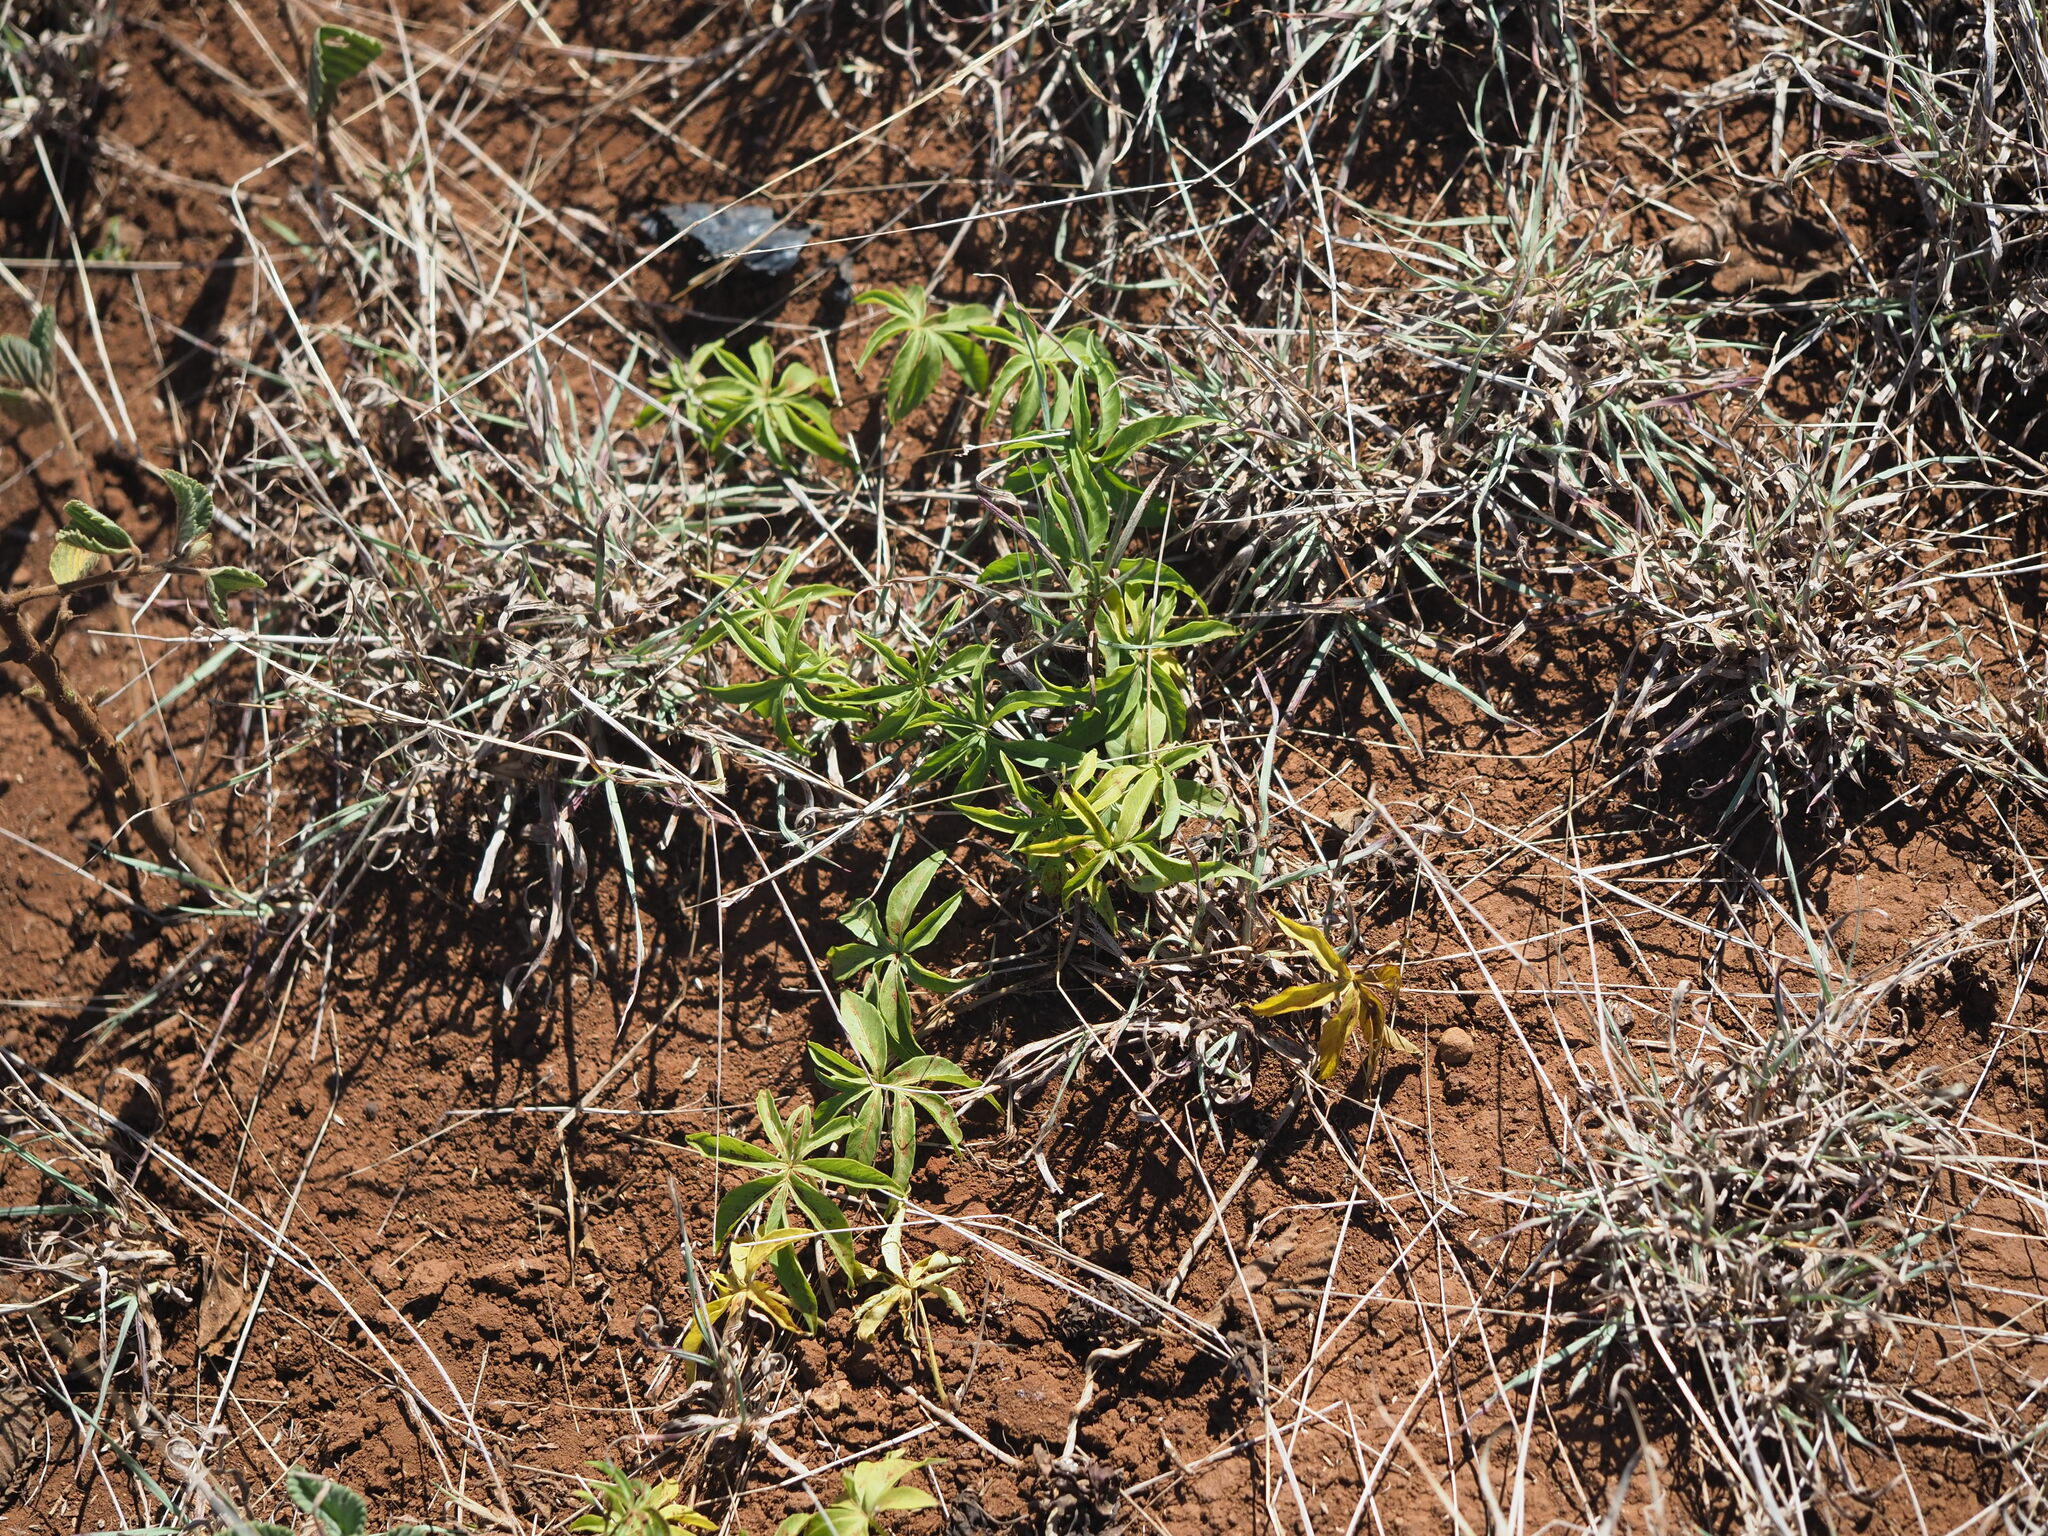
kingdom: Plantae
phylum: Tracheophyta
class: Magnoliopsida
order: Solanales
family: Convolvulaceae
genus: Ipomoea
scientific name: Ipomoea cairica
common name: Mile a minute vine
